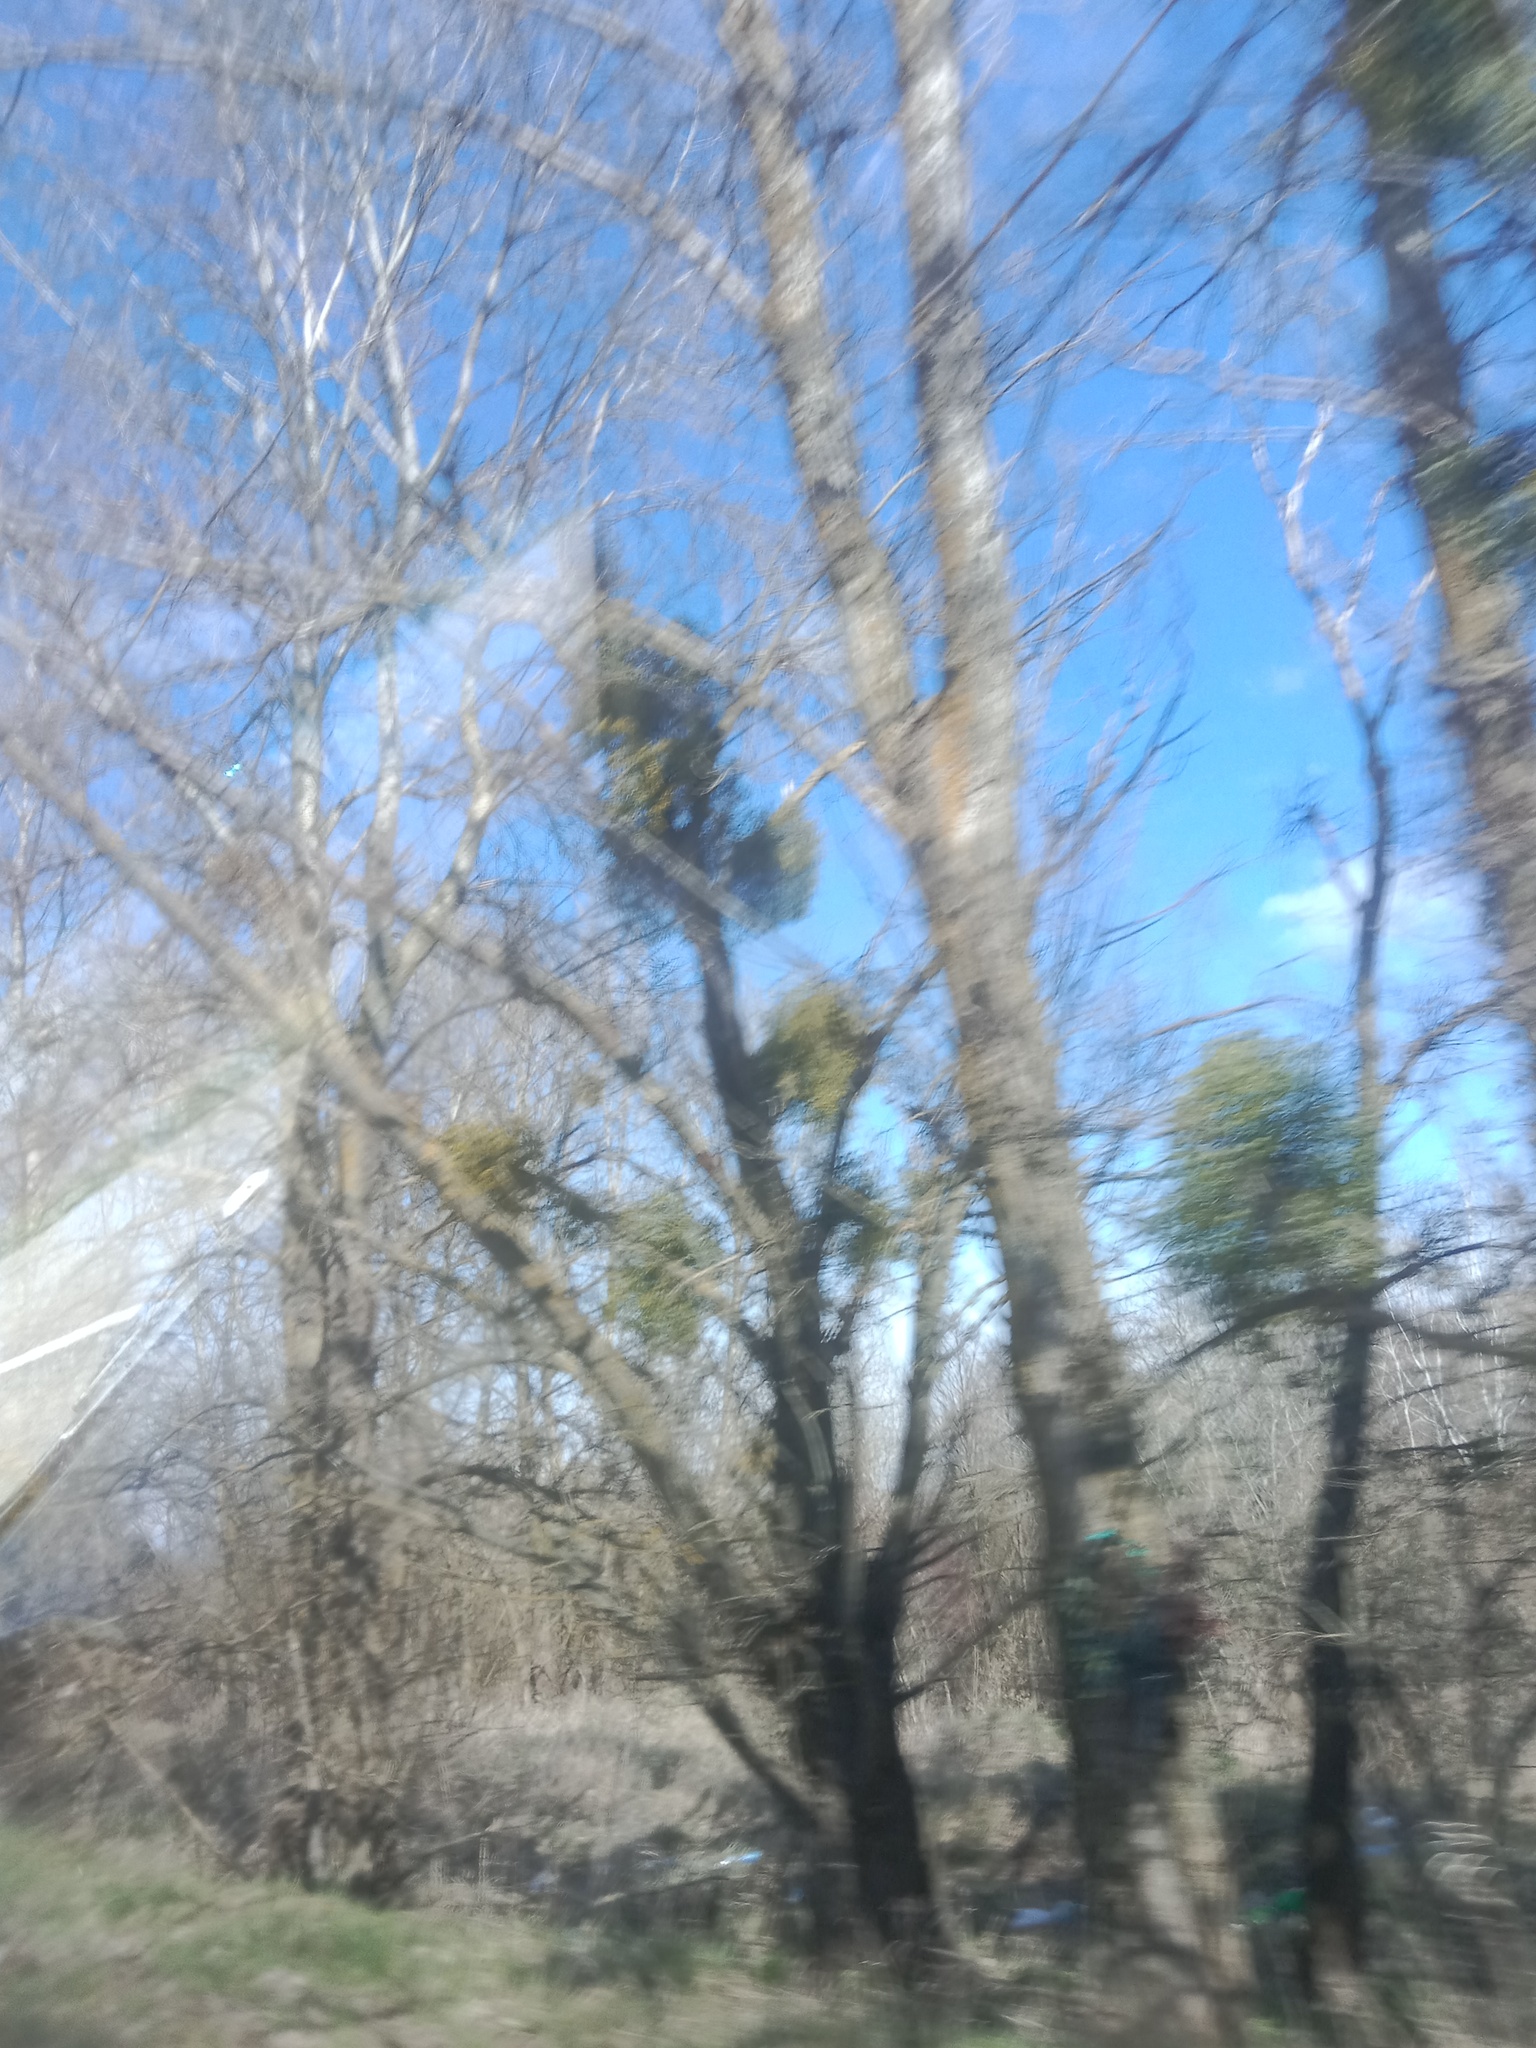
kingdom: Plantae
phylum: Tracheophyta
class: Magnoliopsida
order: Santalales
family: Viscaceae
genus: Viscum
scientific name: Viscum album
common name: Mistletoe
